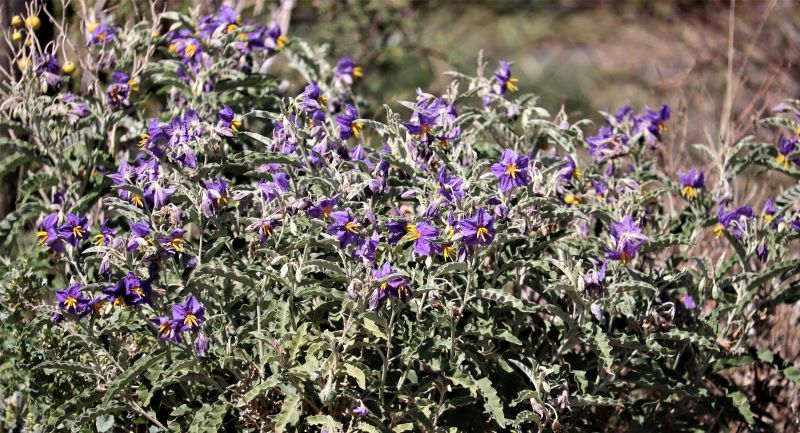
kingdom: Plantae
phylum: Tracheophyta
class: Magnoliopsida
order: Solanales
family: Solanaceae
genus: Solanum
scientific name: Solanum elaeagnifolium
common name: Silverleaf nightshade
